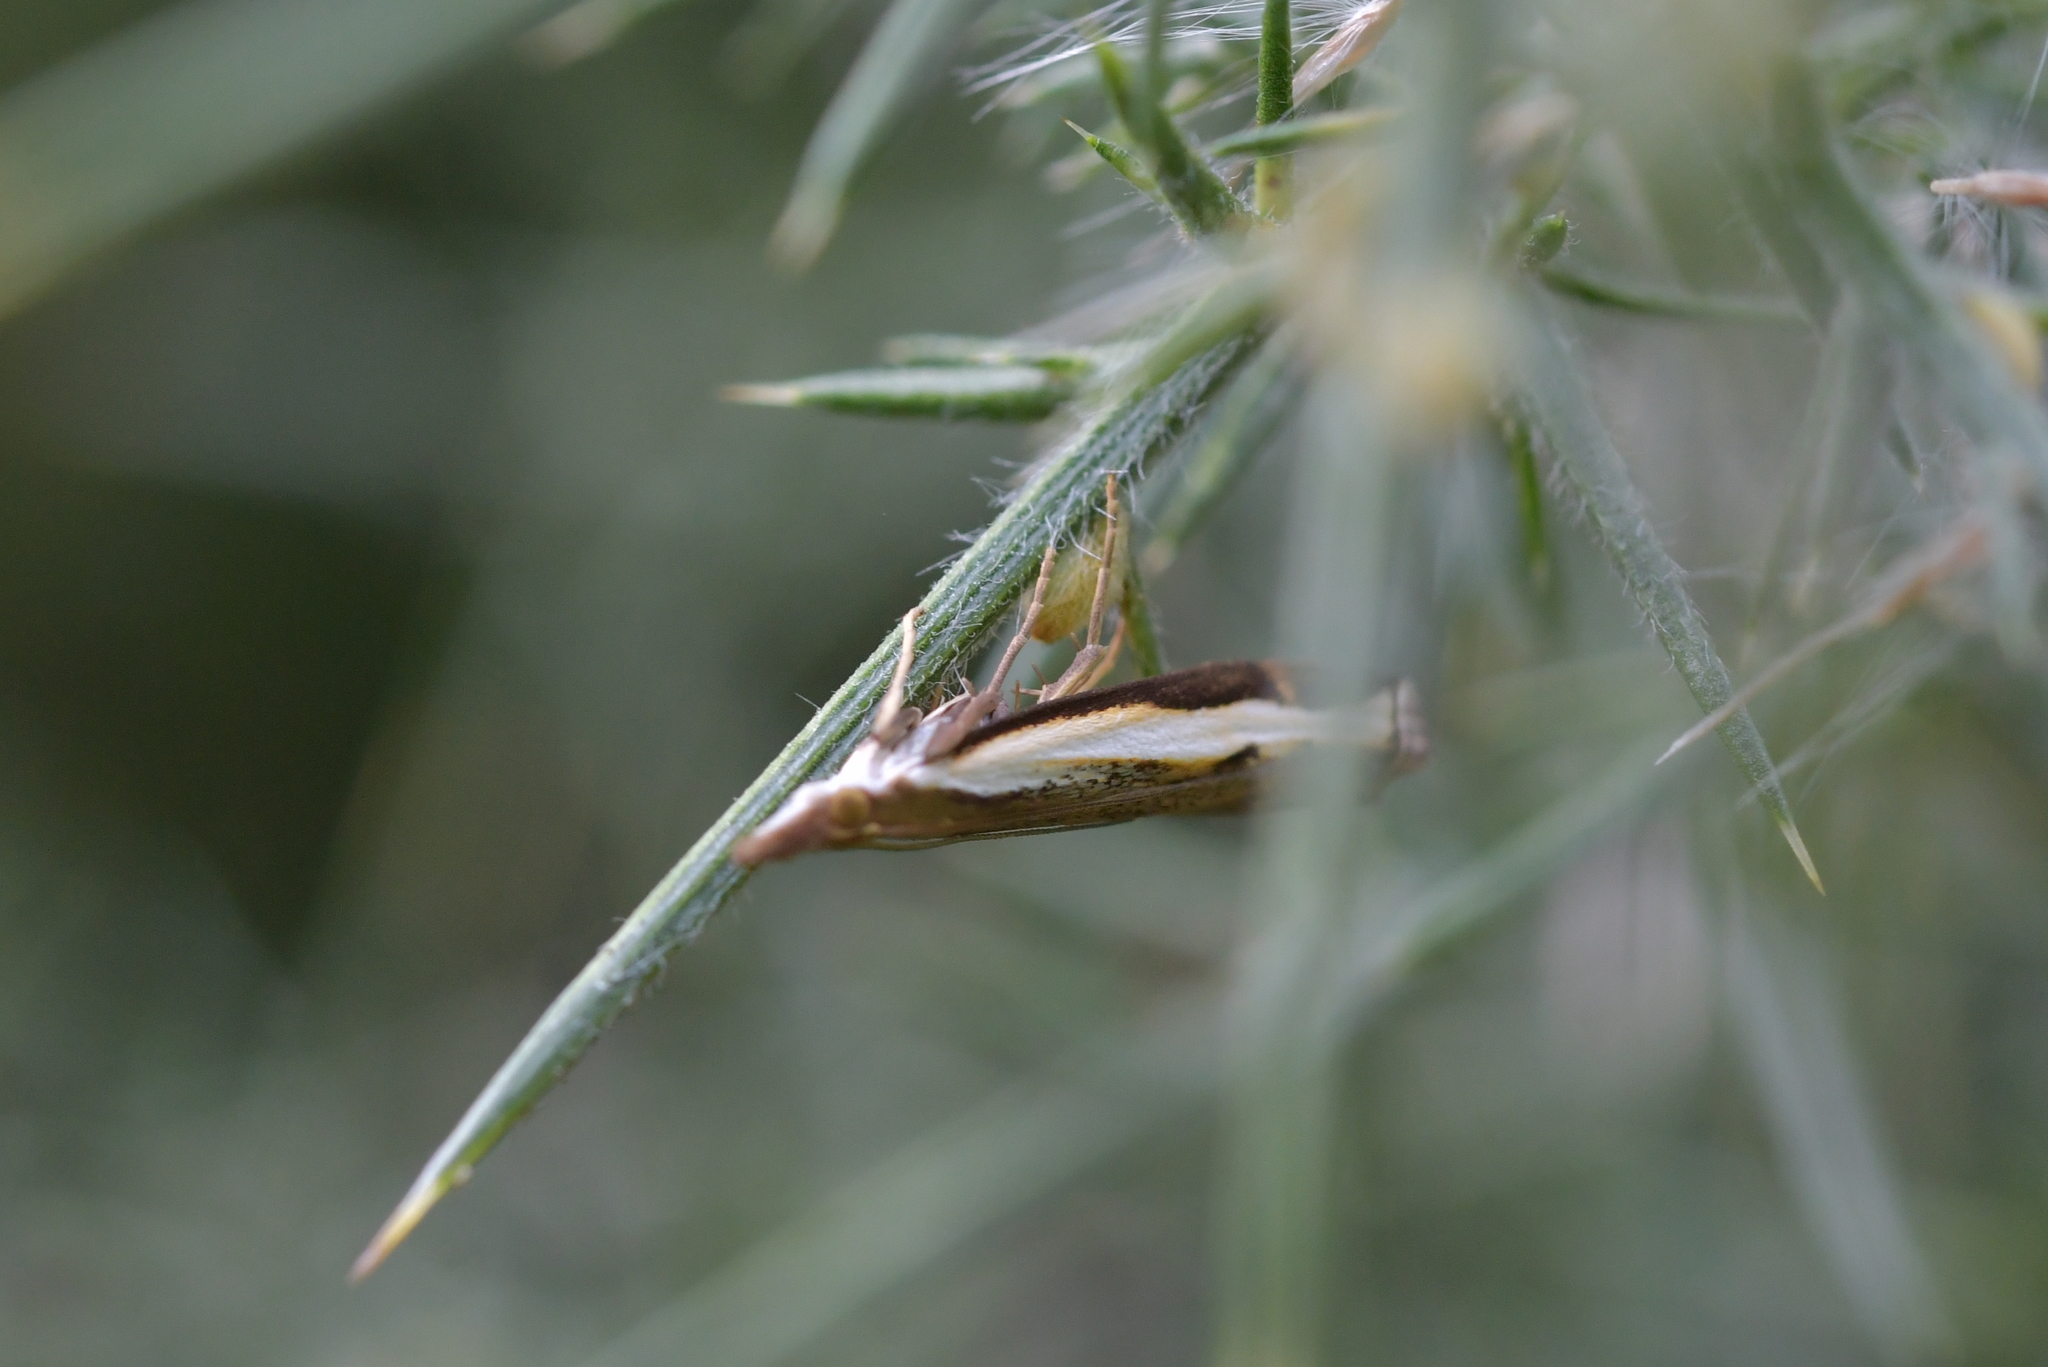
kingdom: Animalia
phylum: Arthropoda
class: Insecta
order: Lepidoptera
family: Crambidae
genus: Orocrambus
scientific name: Orocrambus flexuosellus
